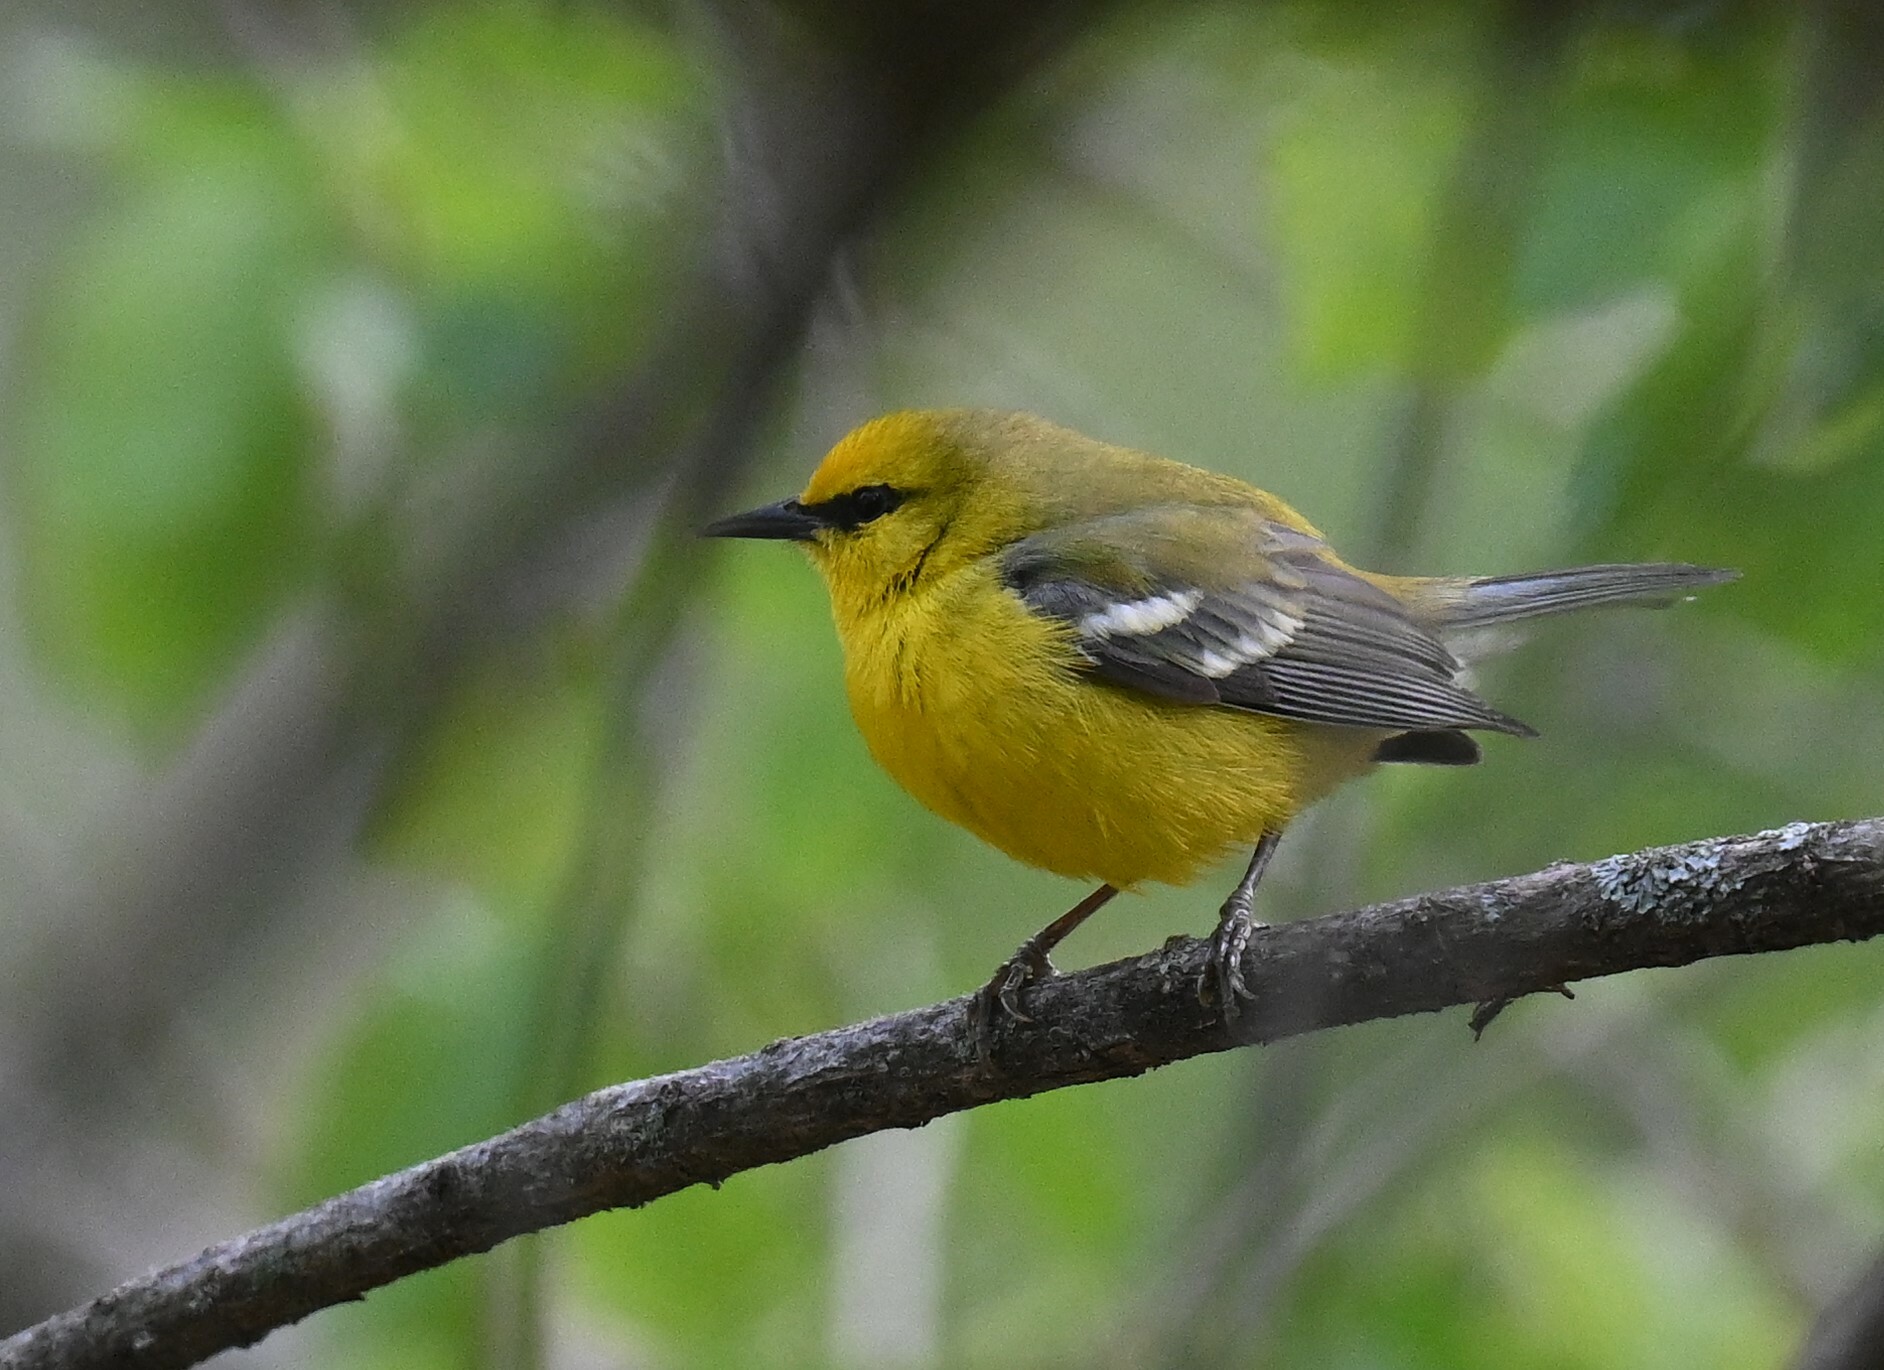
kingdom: Animalia
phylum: Chordata
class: Aves
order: Passeriformes
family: Parulidae
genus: Vermivora
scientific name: Vermivora cyanoptera
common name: Blue-winged warbler
